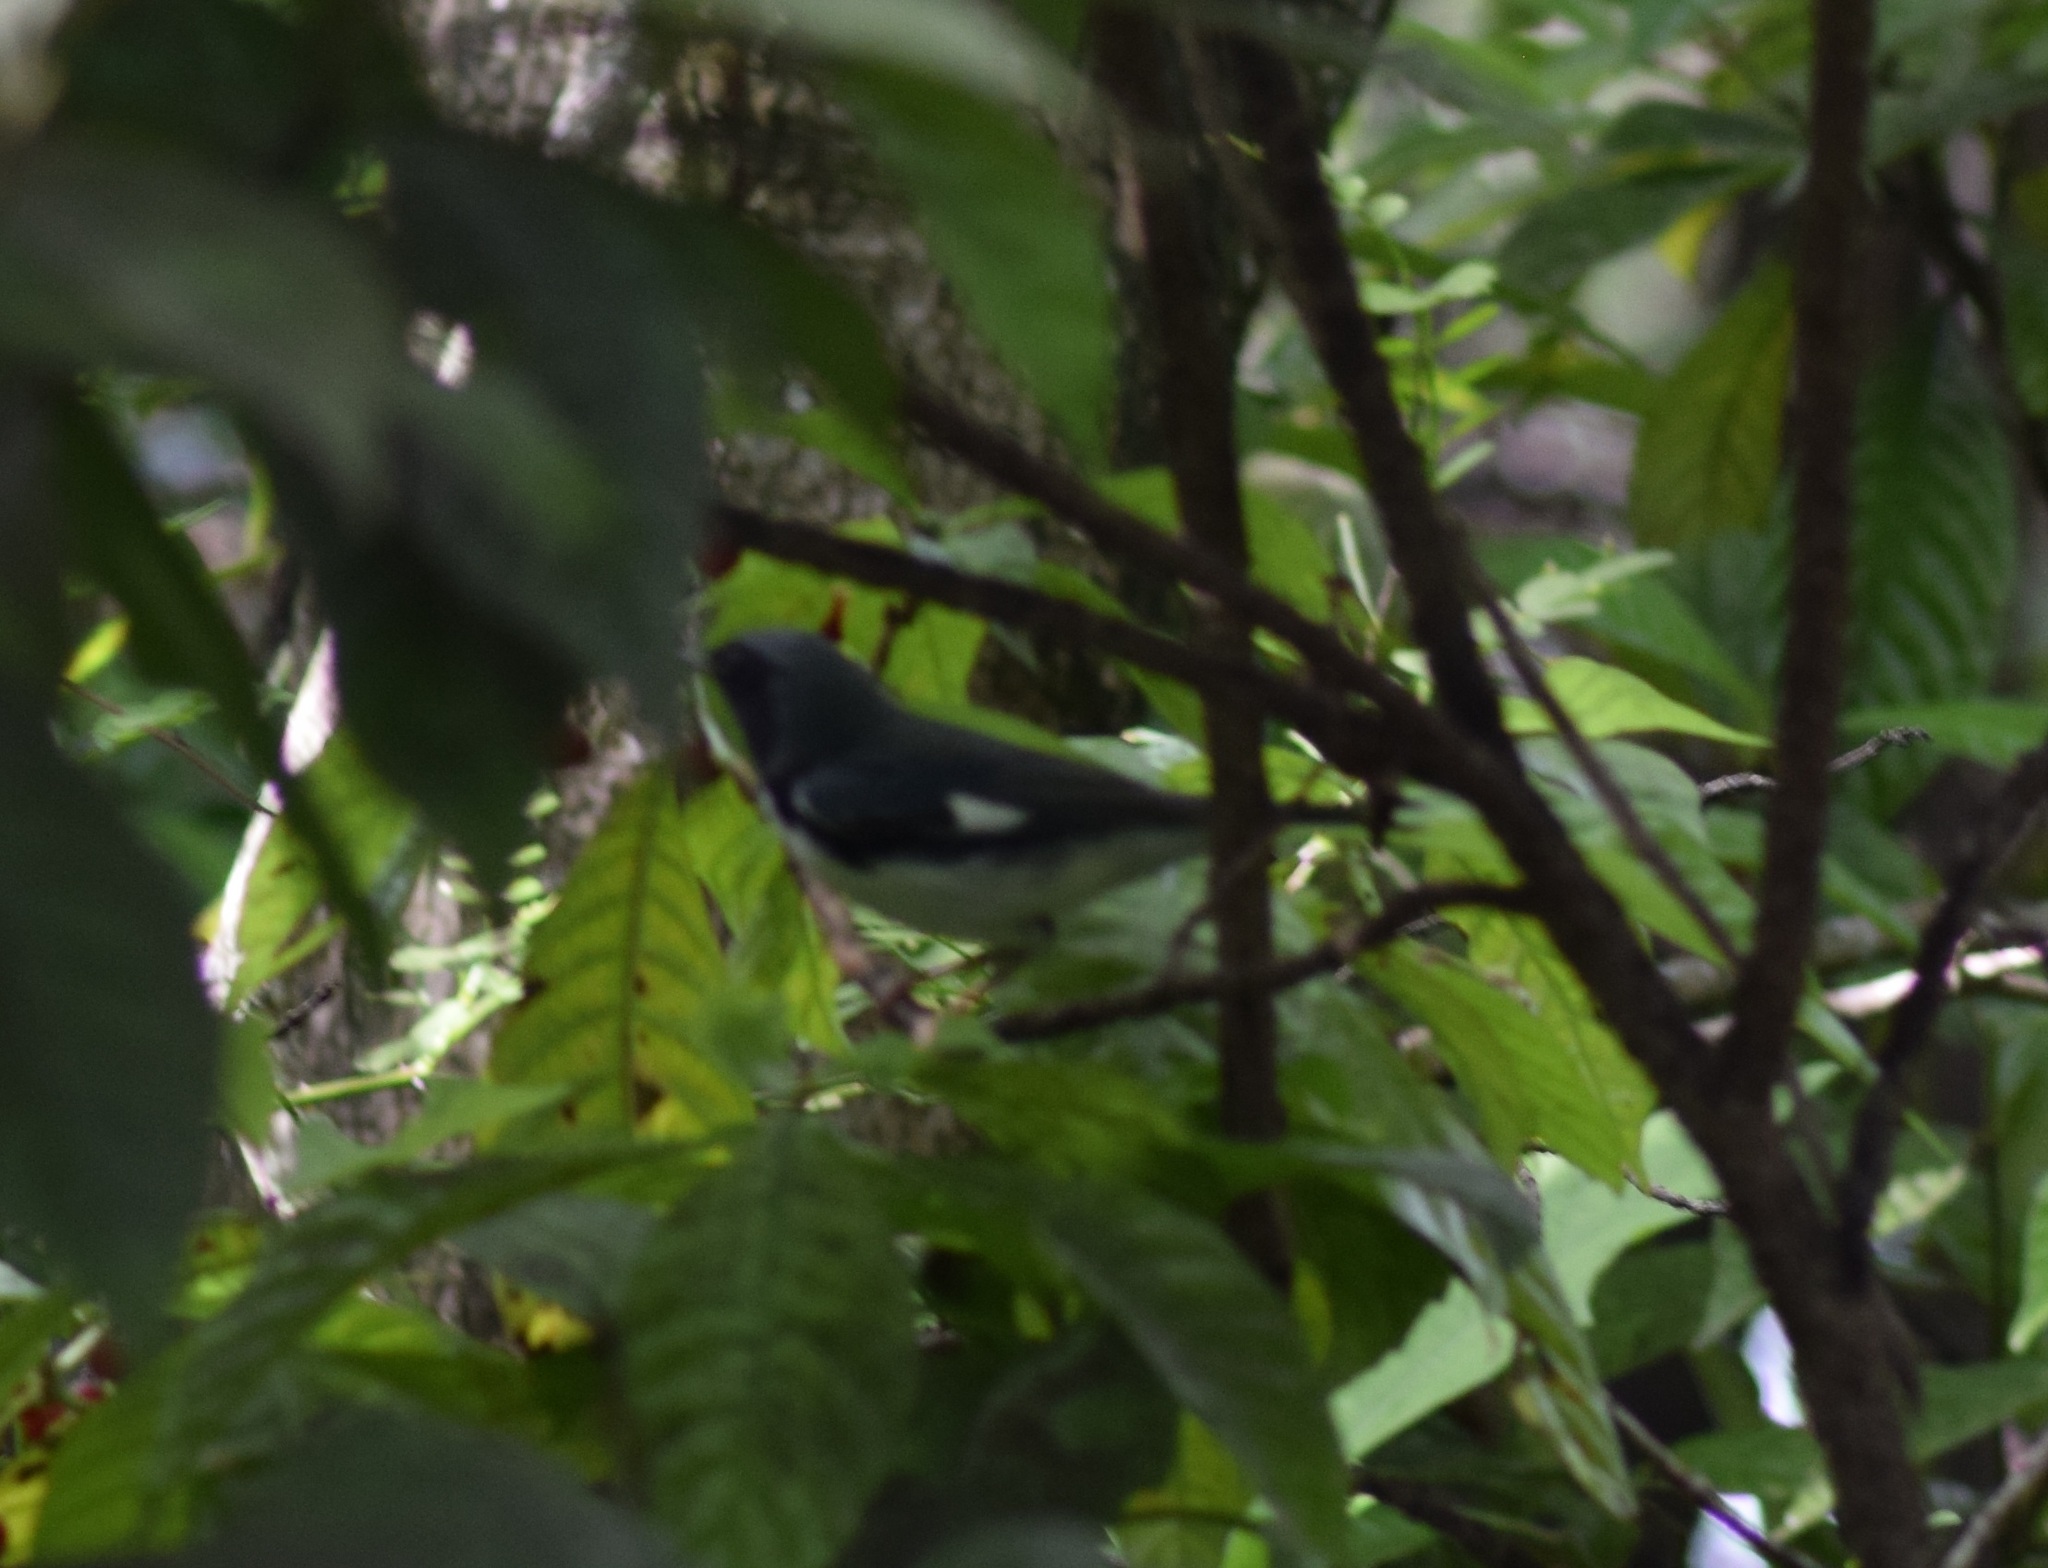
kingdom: Animalia
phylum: Chordata
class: Aves
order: Passeriformes
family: Parulidae
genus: Setophaga
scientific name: Setophaga caerulescens
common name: Black-throated blue warbler
